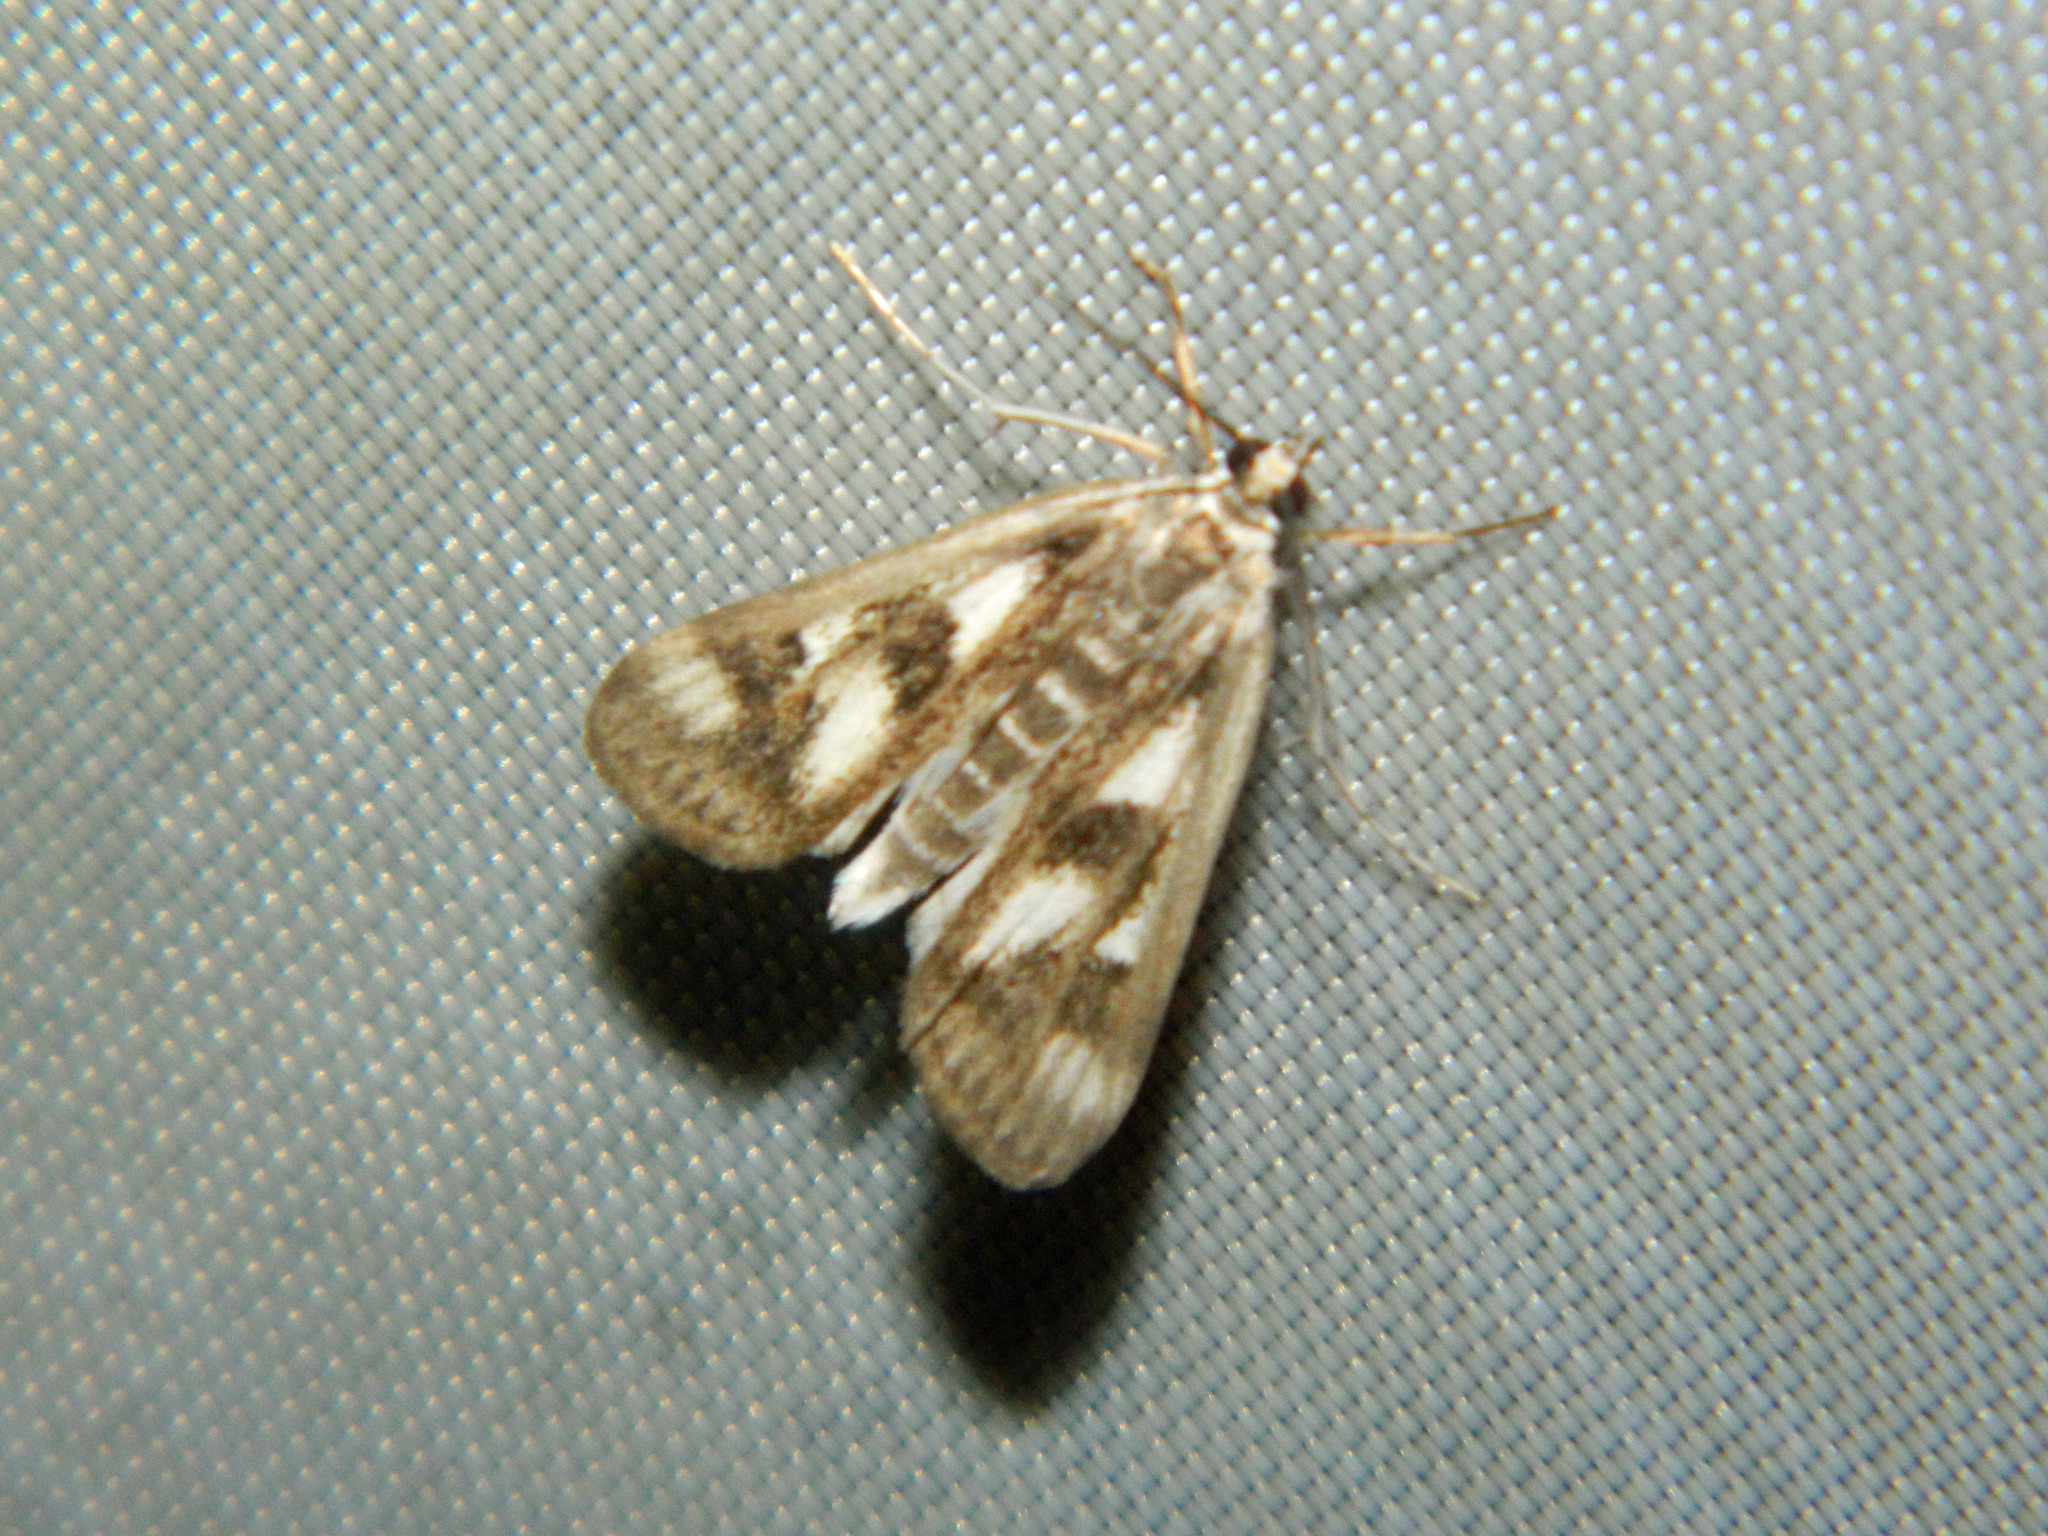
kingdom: Animalia
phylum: Arthropoda
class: Insecta
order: Lepidoptera
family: Crambidae
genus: Parapoynx
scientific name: Parapoynx maculalis
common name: Polymorphic pondweed moth
